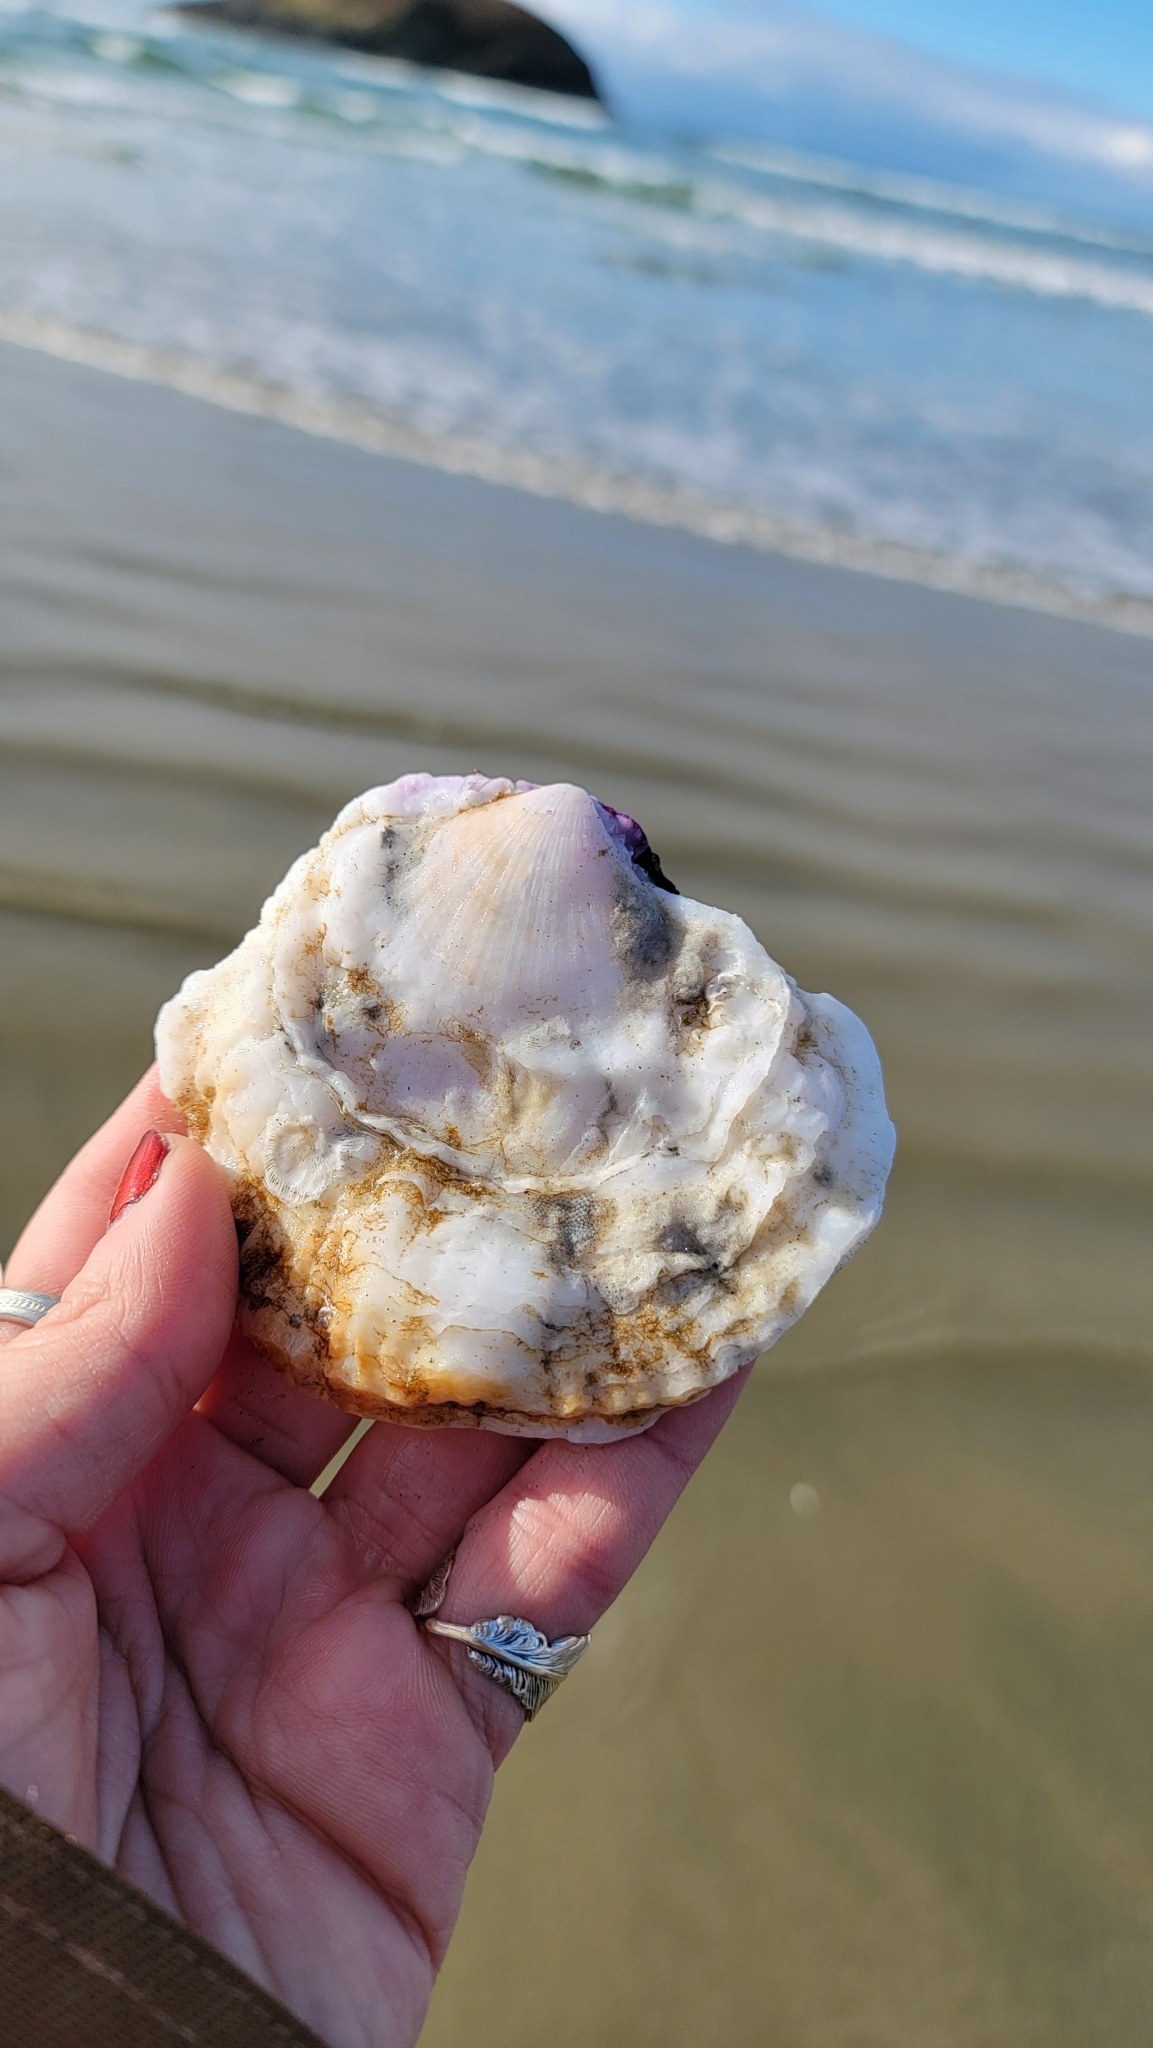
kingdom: Animalia
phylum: Mollusca
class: Bivalvia
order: Pectinida
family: Pectinidae
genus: Crassadoma
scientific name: Crassadoma gigantea
